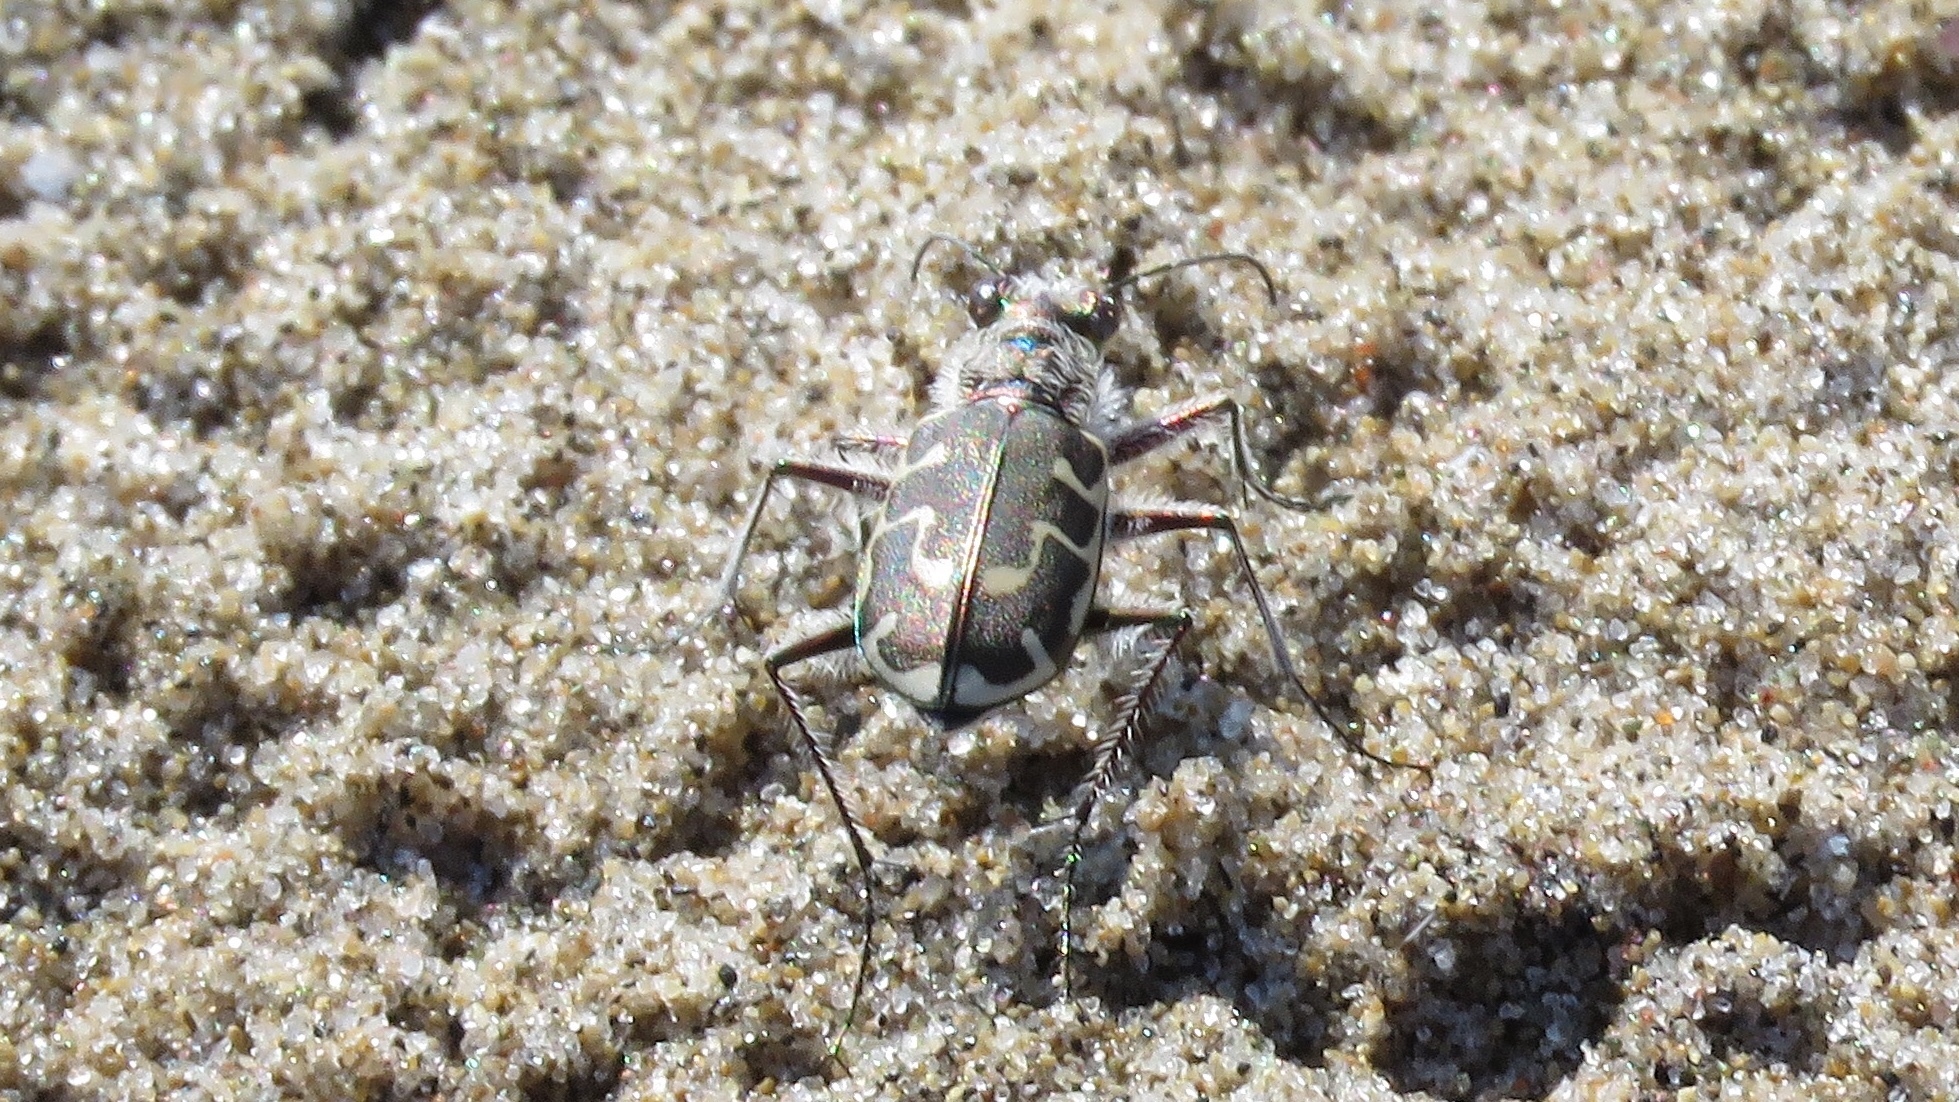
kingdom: Animalia
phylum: Arthropoda
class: Insecta
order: Coleoptera
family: Carabidae
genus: Cicindela
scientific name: Cicindela hirticollis
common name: Hairy-necked tiger beetle
